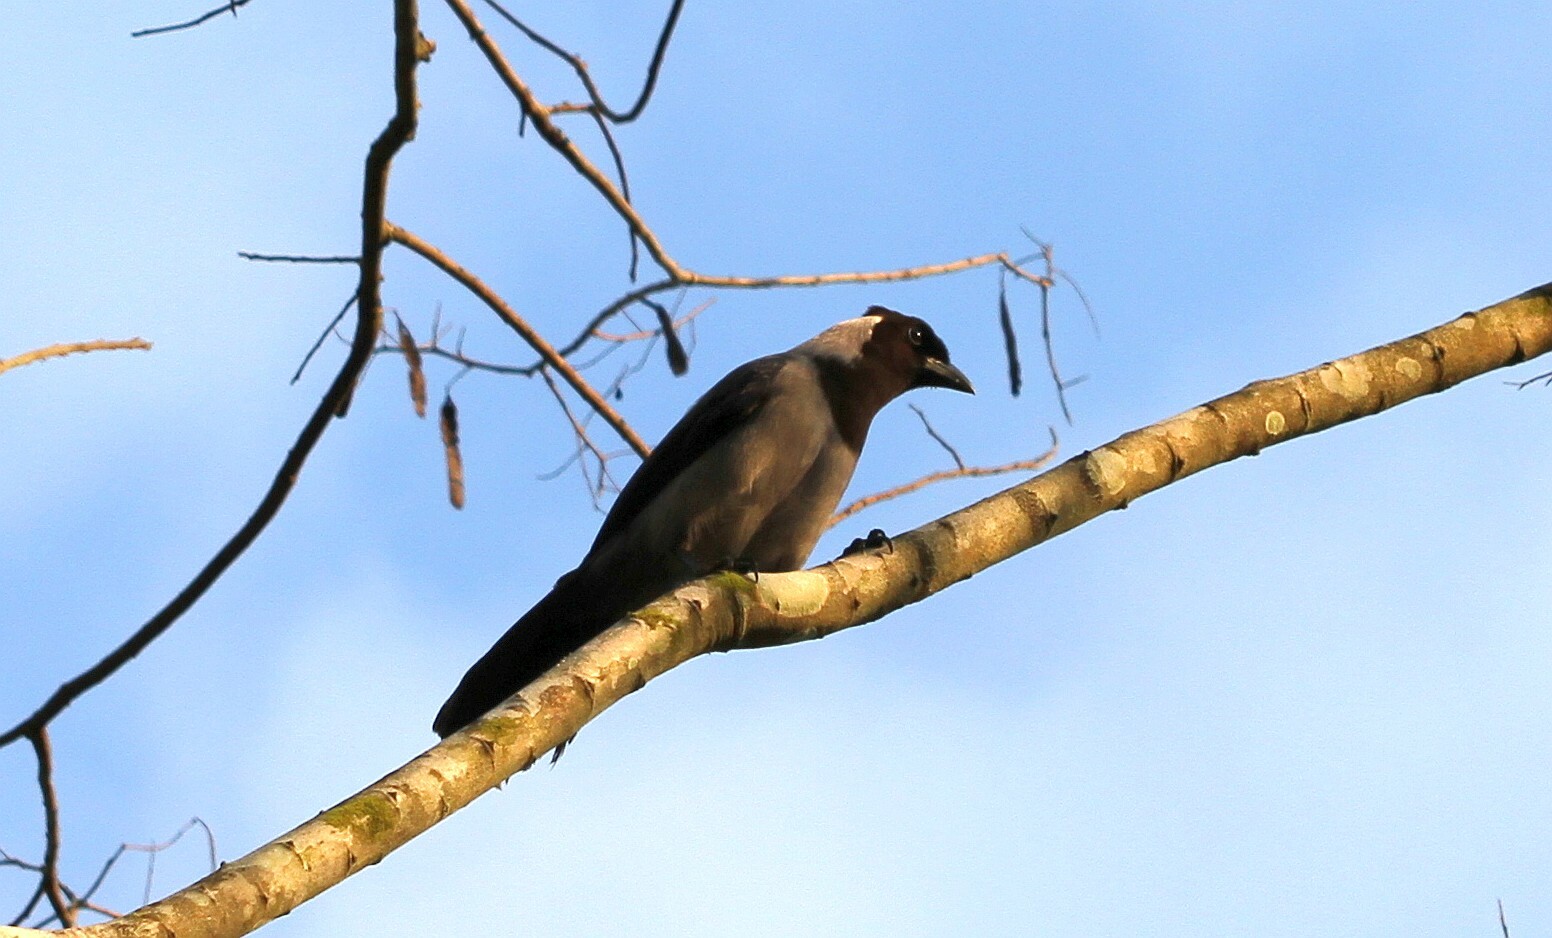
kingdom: Animalia
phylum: Chordata
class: Aves
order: Passeriformes
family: Corvidae
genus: Cyanocorax
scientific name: Cyanocorax violaceus
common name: Violaceous jay
